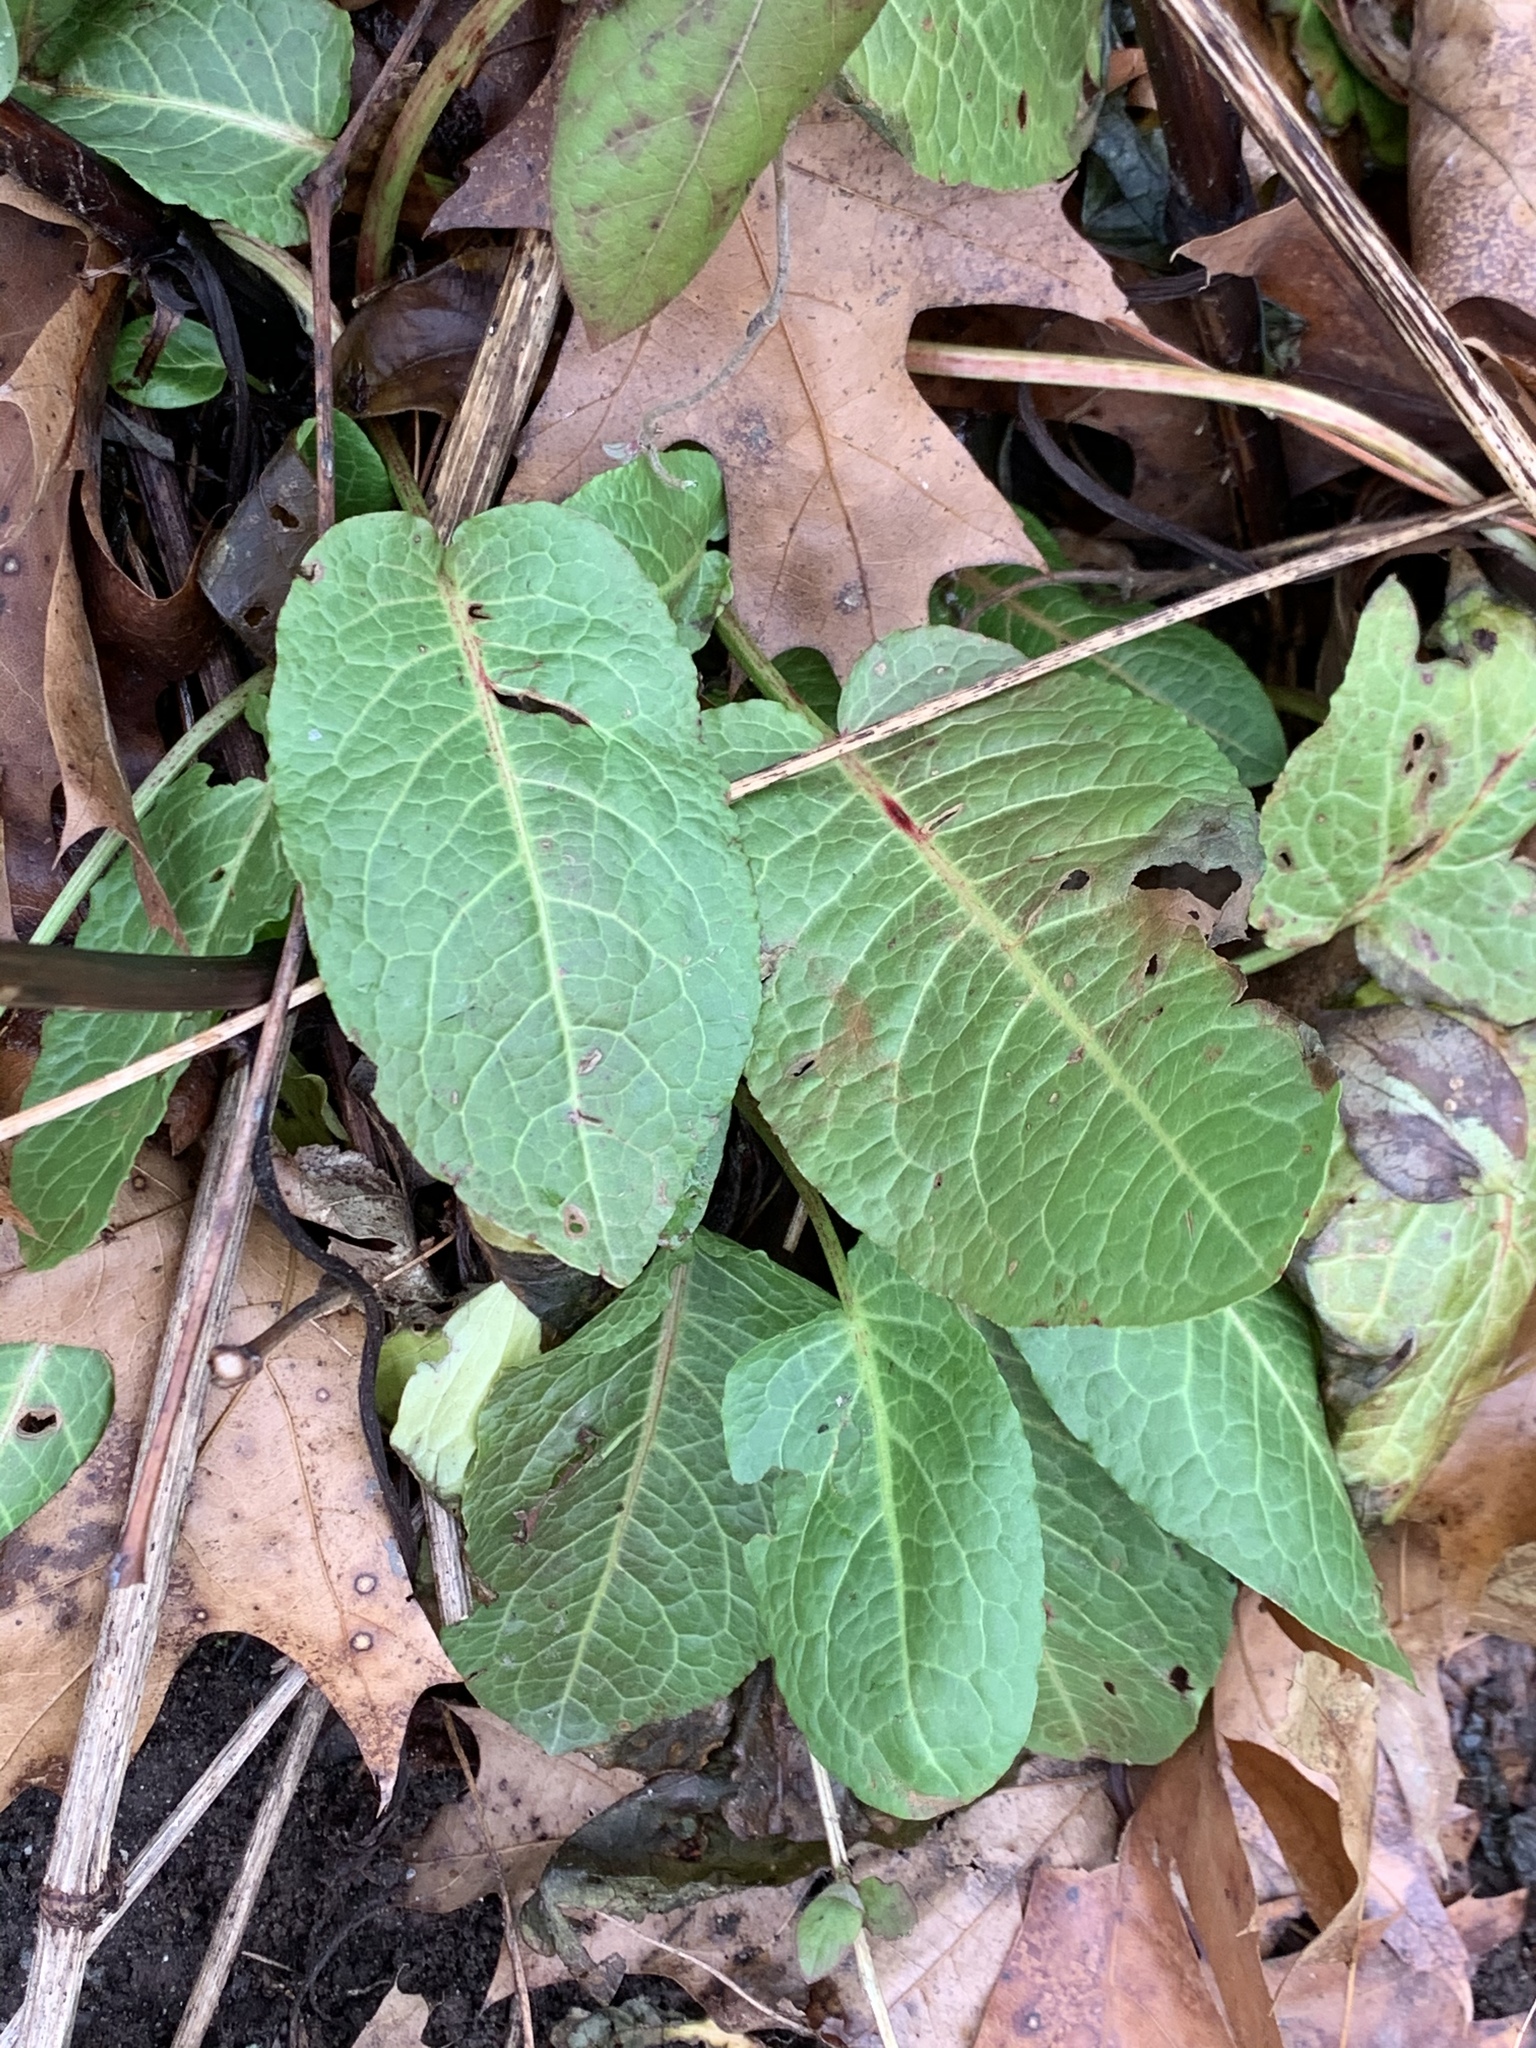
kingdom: Plantae
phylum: Tracheophyta
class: Magnoliopsida
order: Caryophyllales
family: Polygonaceae
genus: Rumex
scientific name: Rumex obtusifolius
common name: Bitter dock
